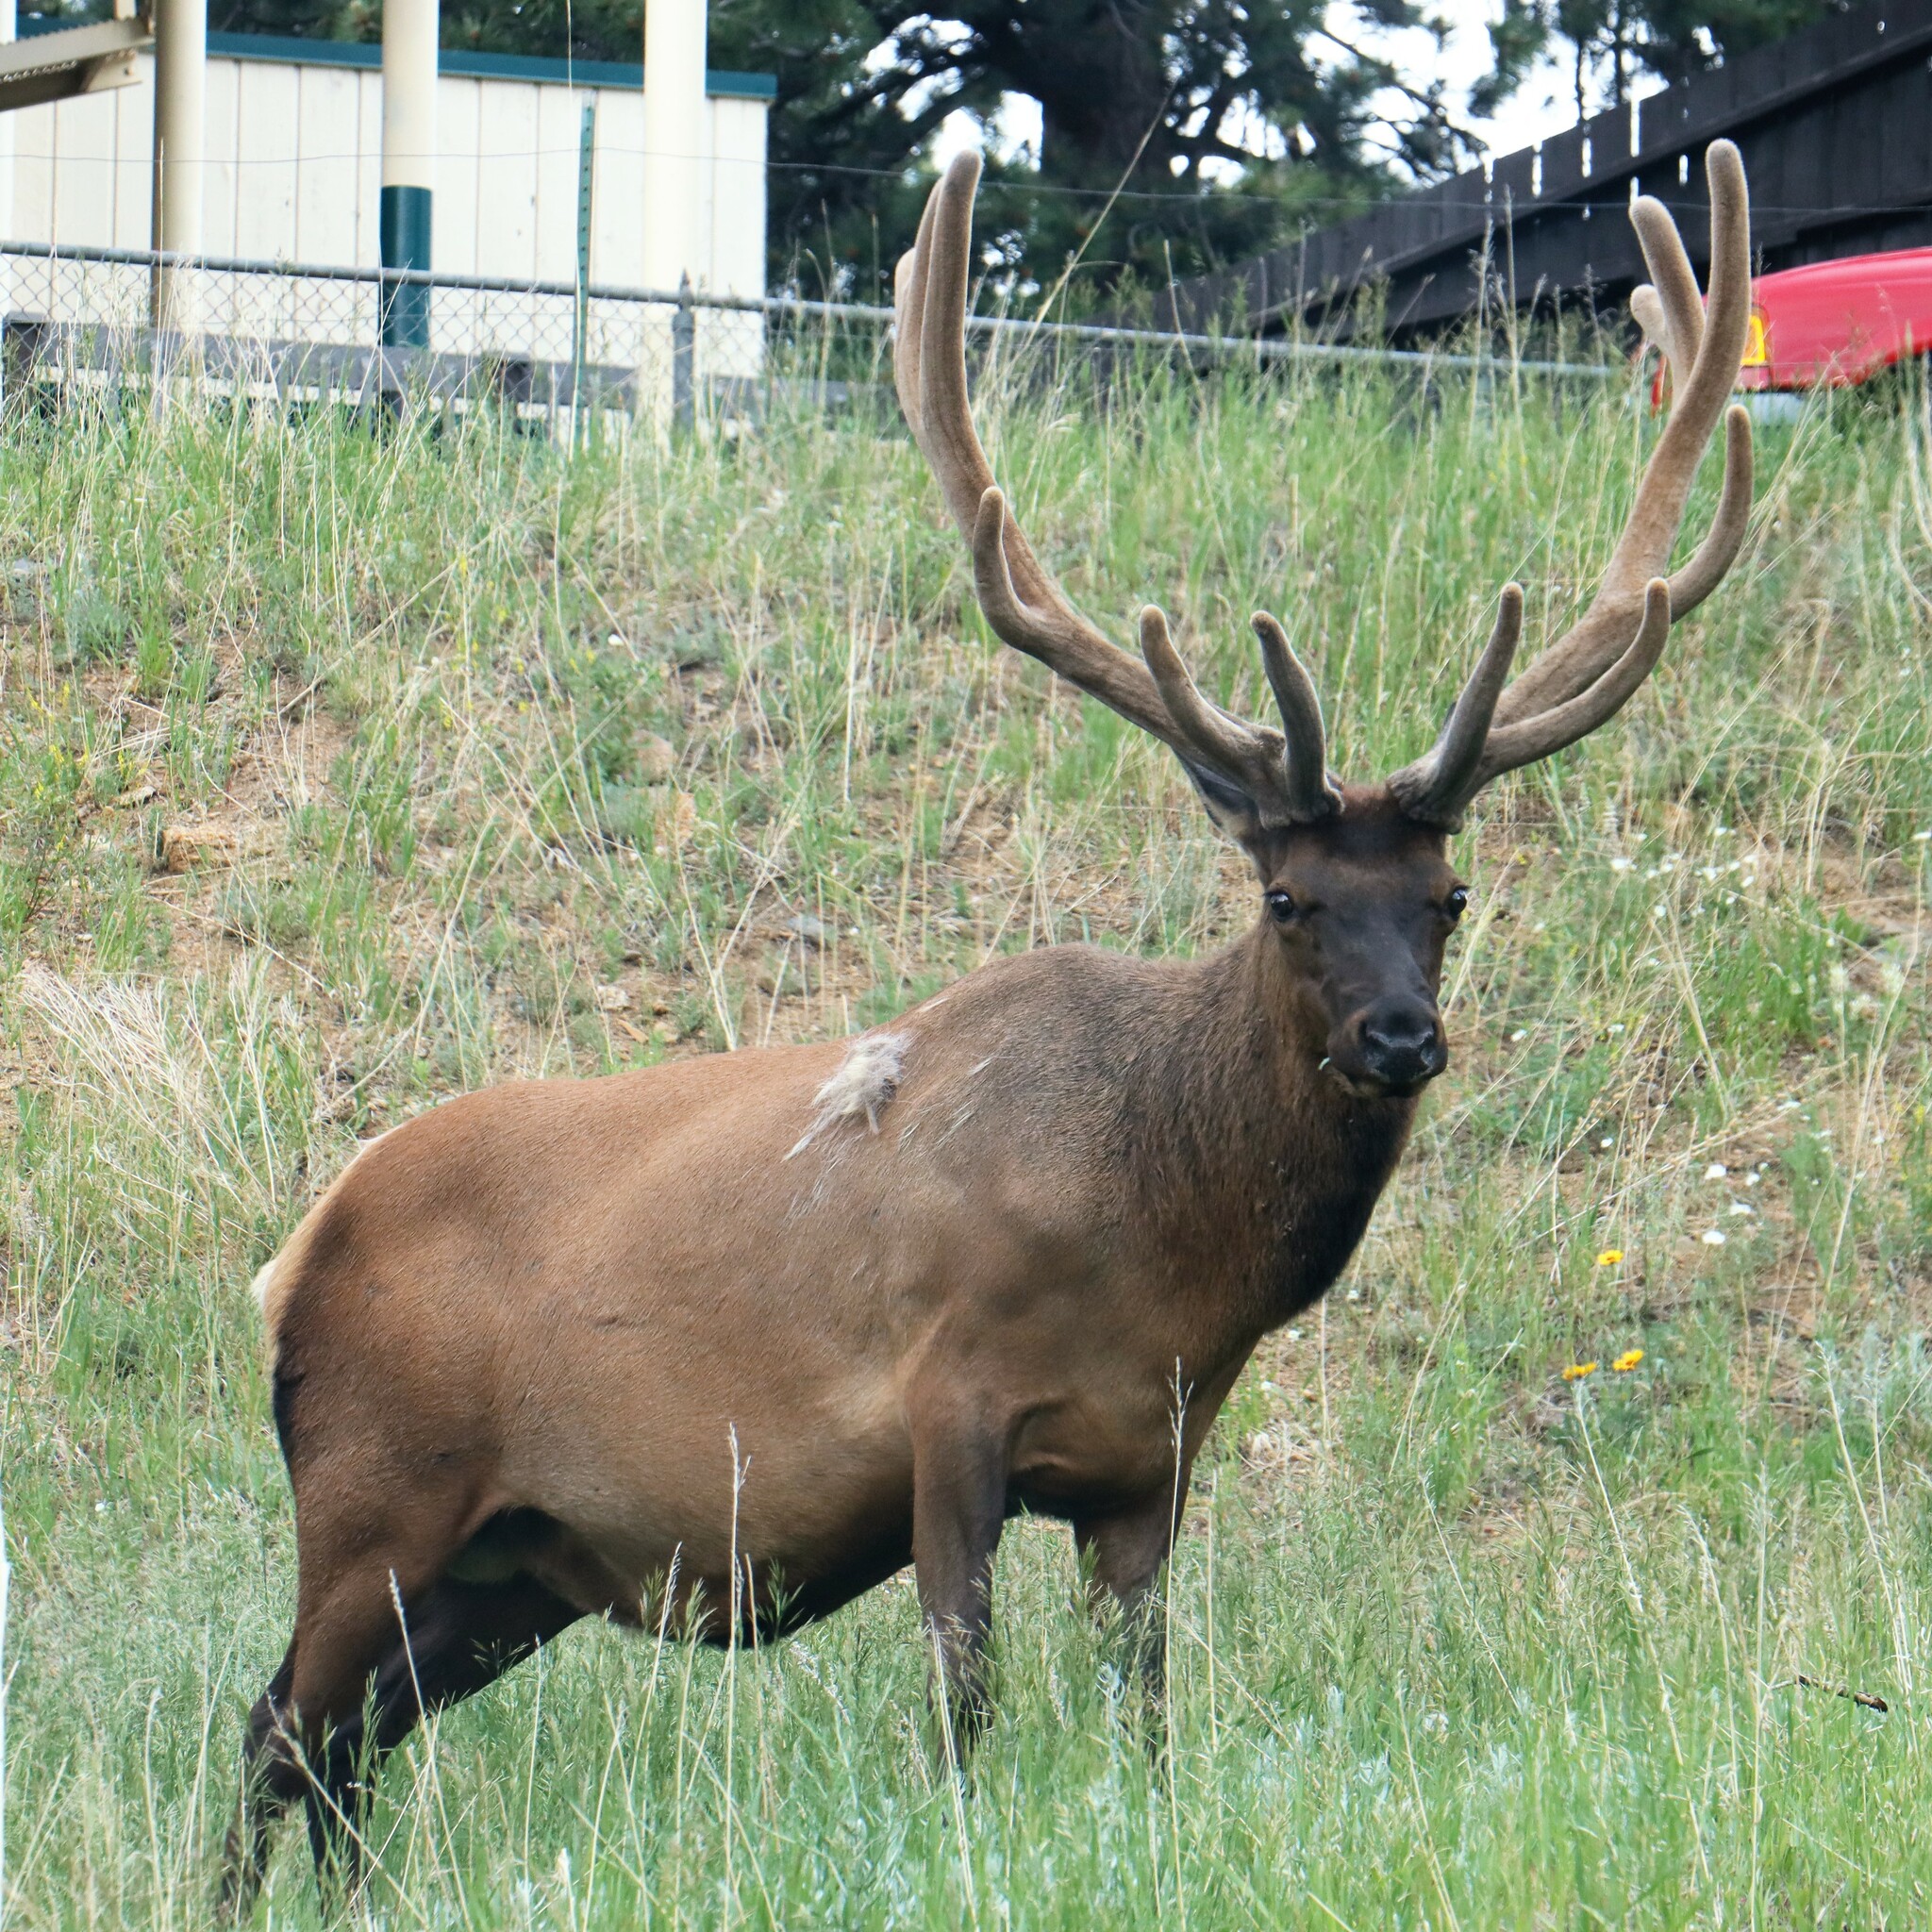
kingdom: Animalia
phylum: Chordata
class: Mammalia
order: Artiodactyla
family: Cervidae
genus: Cervus
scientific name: Cervus elaphus
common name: Red deer
